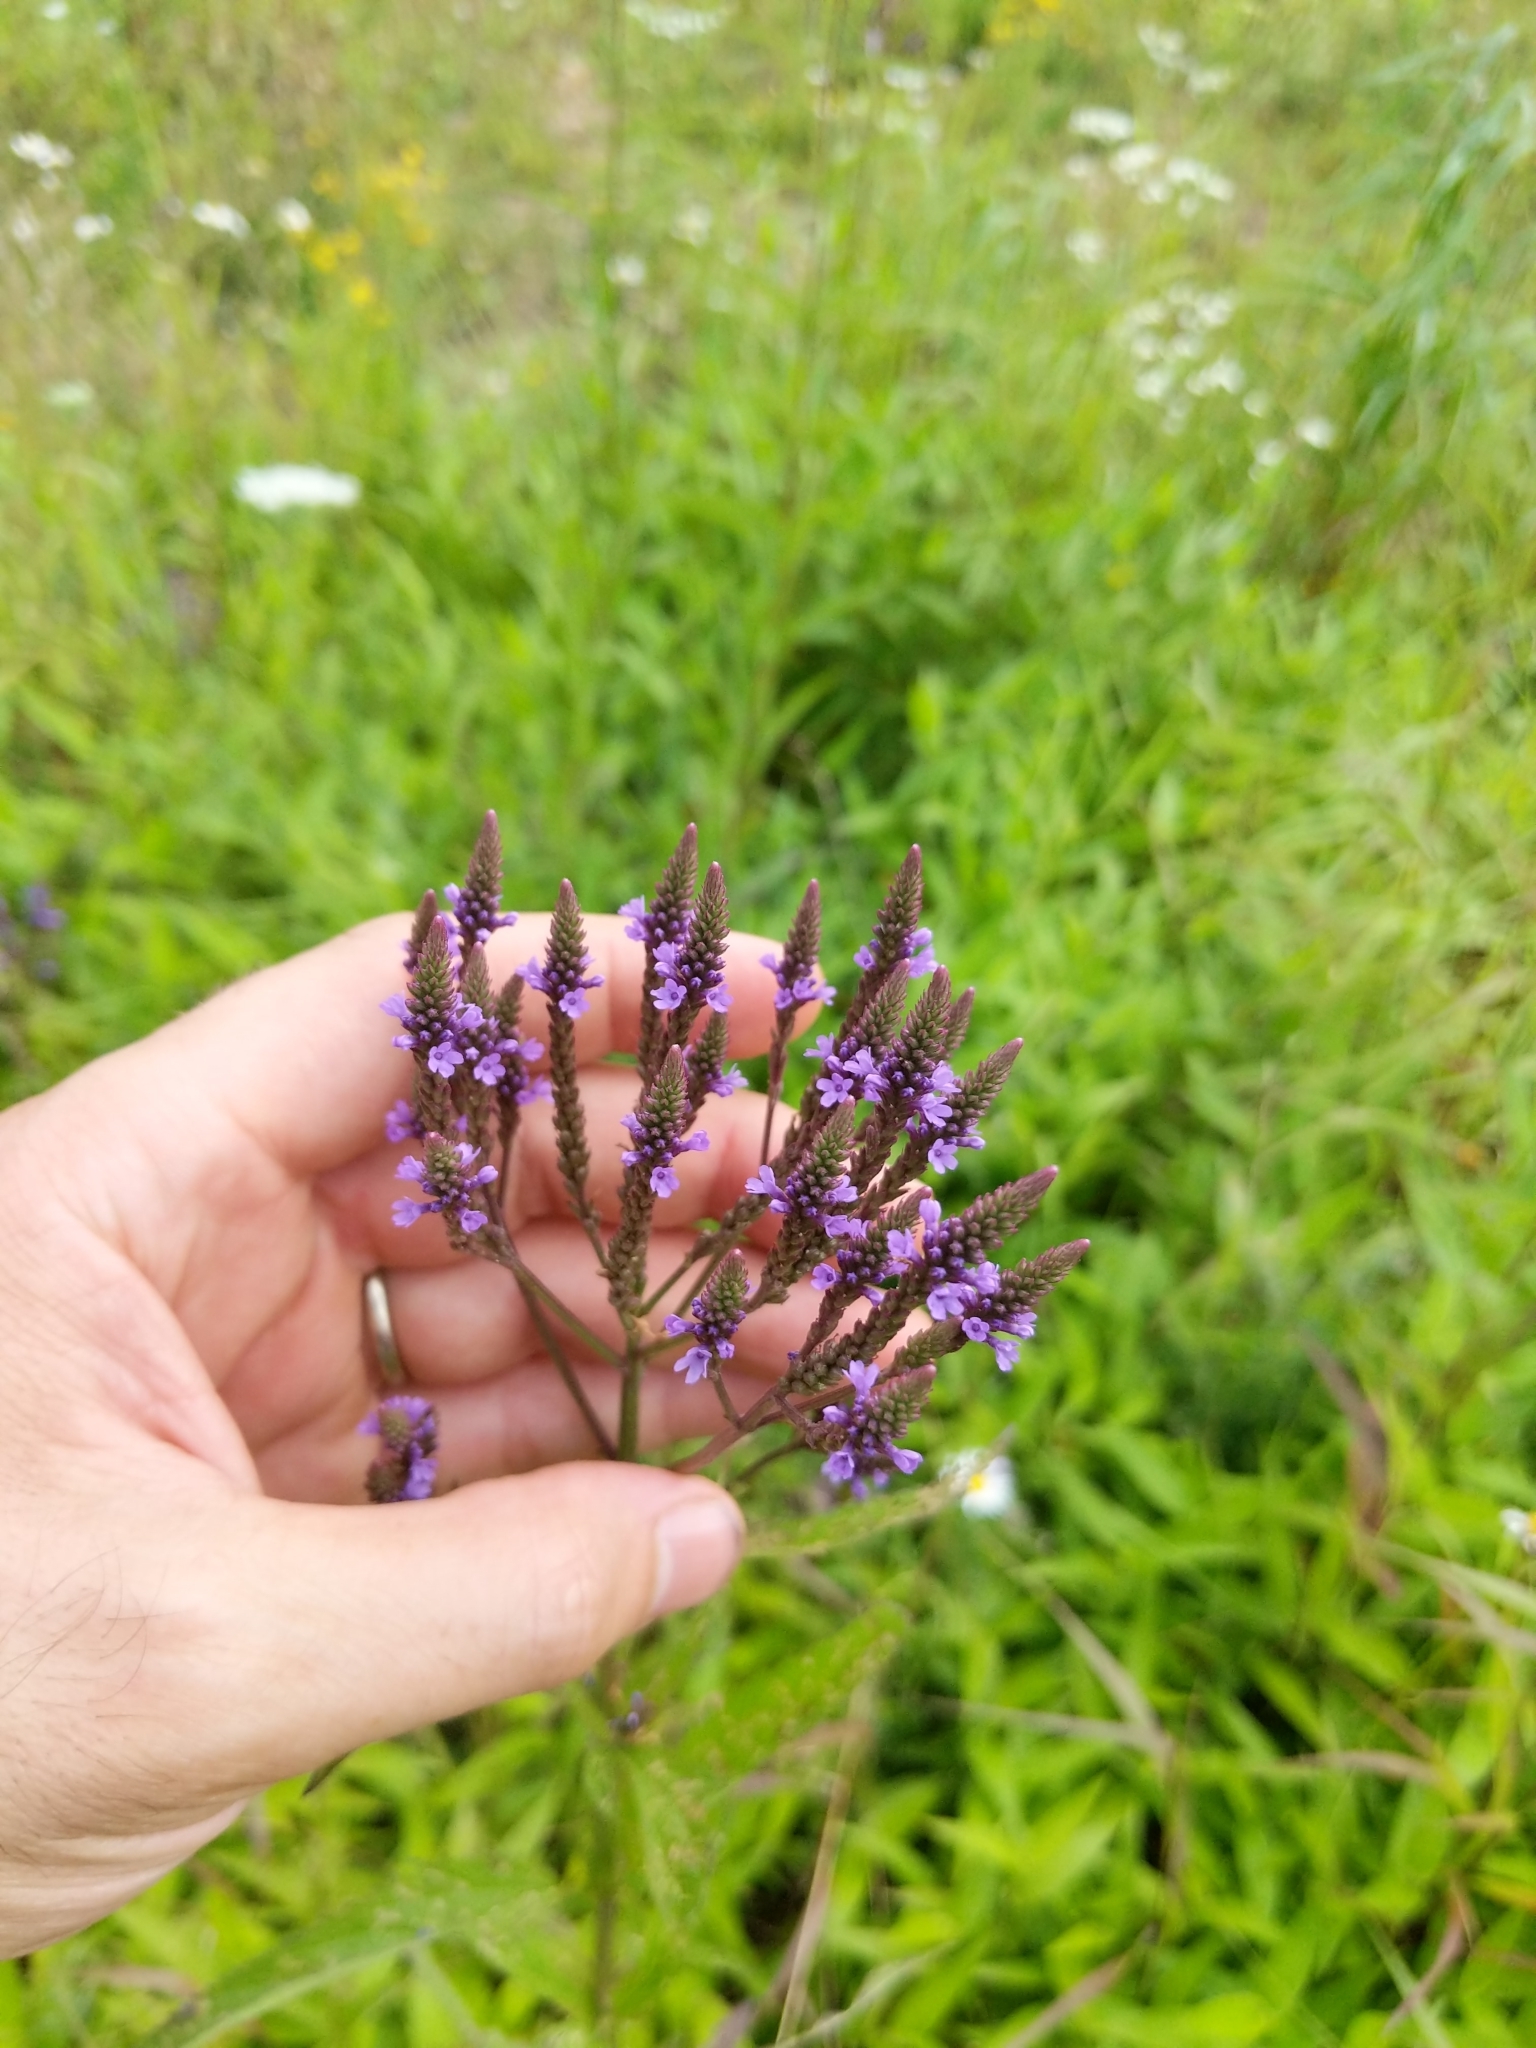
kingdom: Plantae
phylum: Tracheophyta
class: Magnoliopsida
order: Lamiales
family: Verbenaceae
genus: Verbena
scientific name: Verbena hastata
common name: American blue vervain
